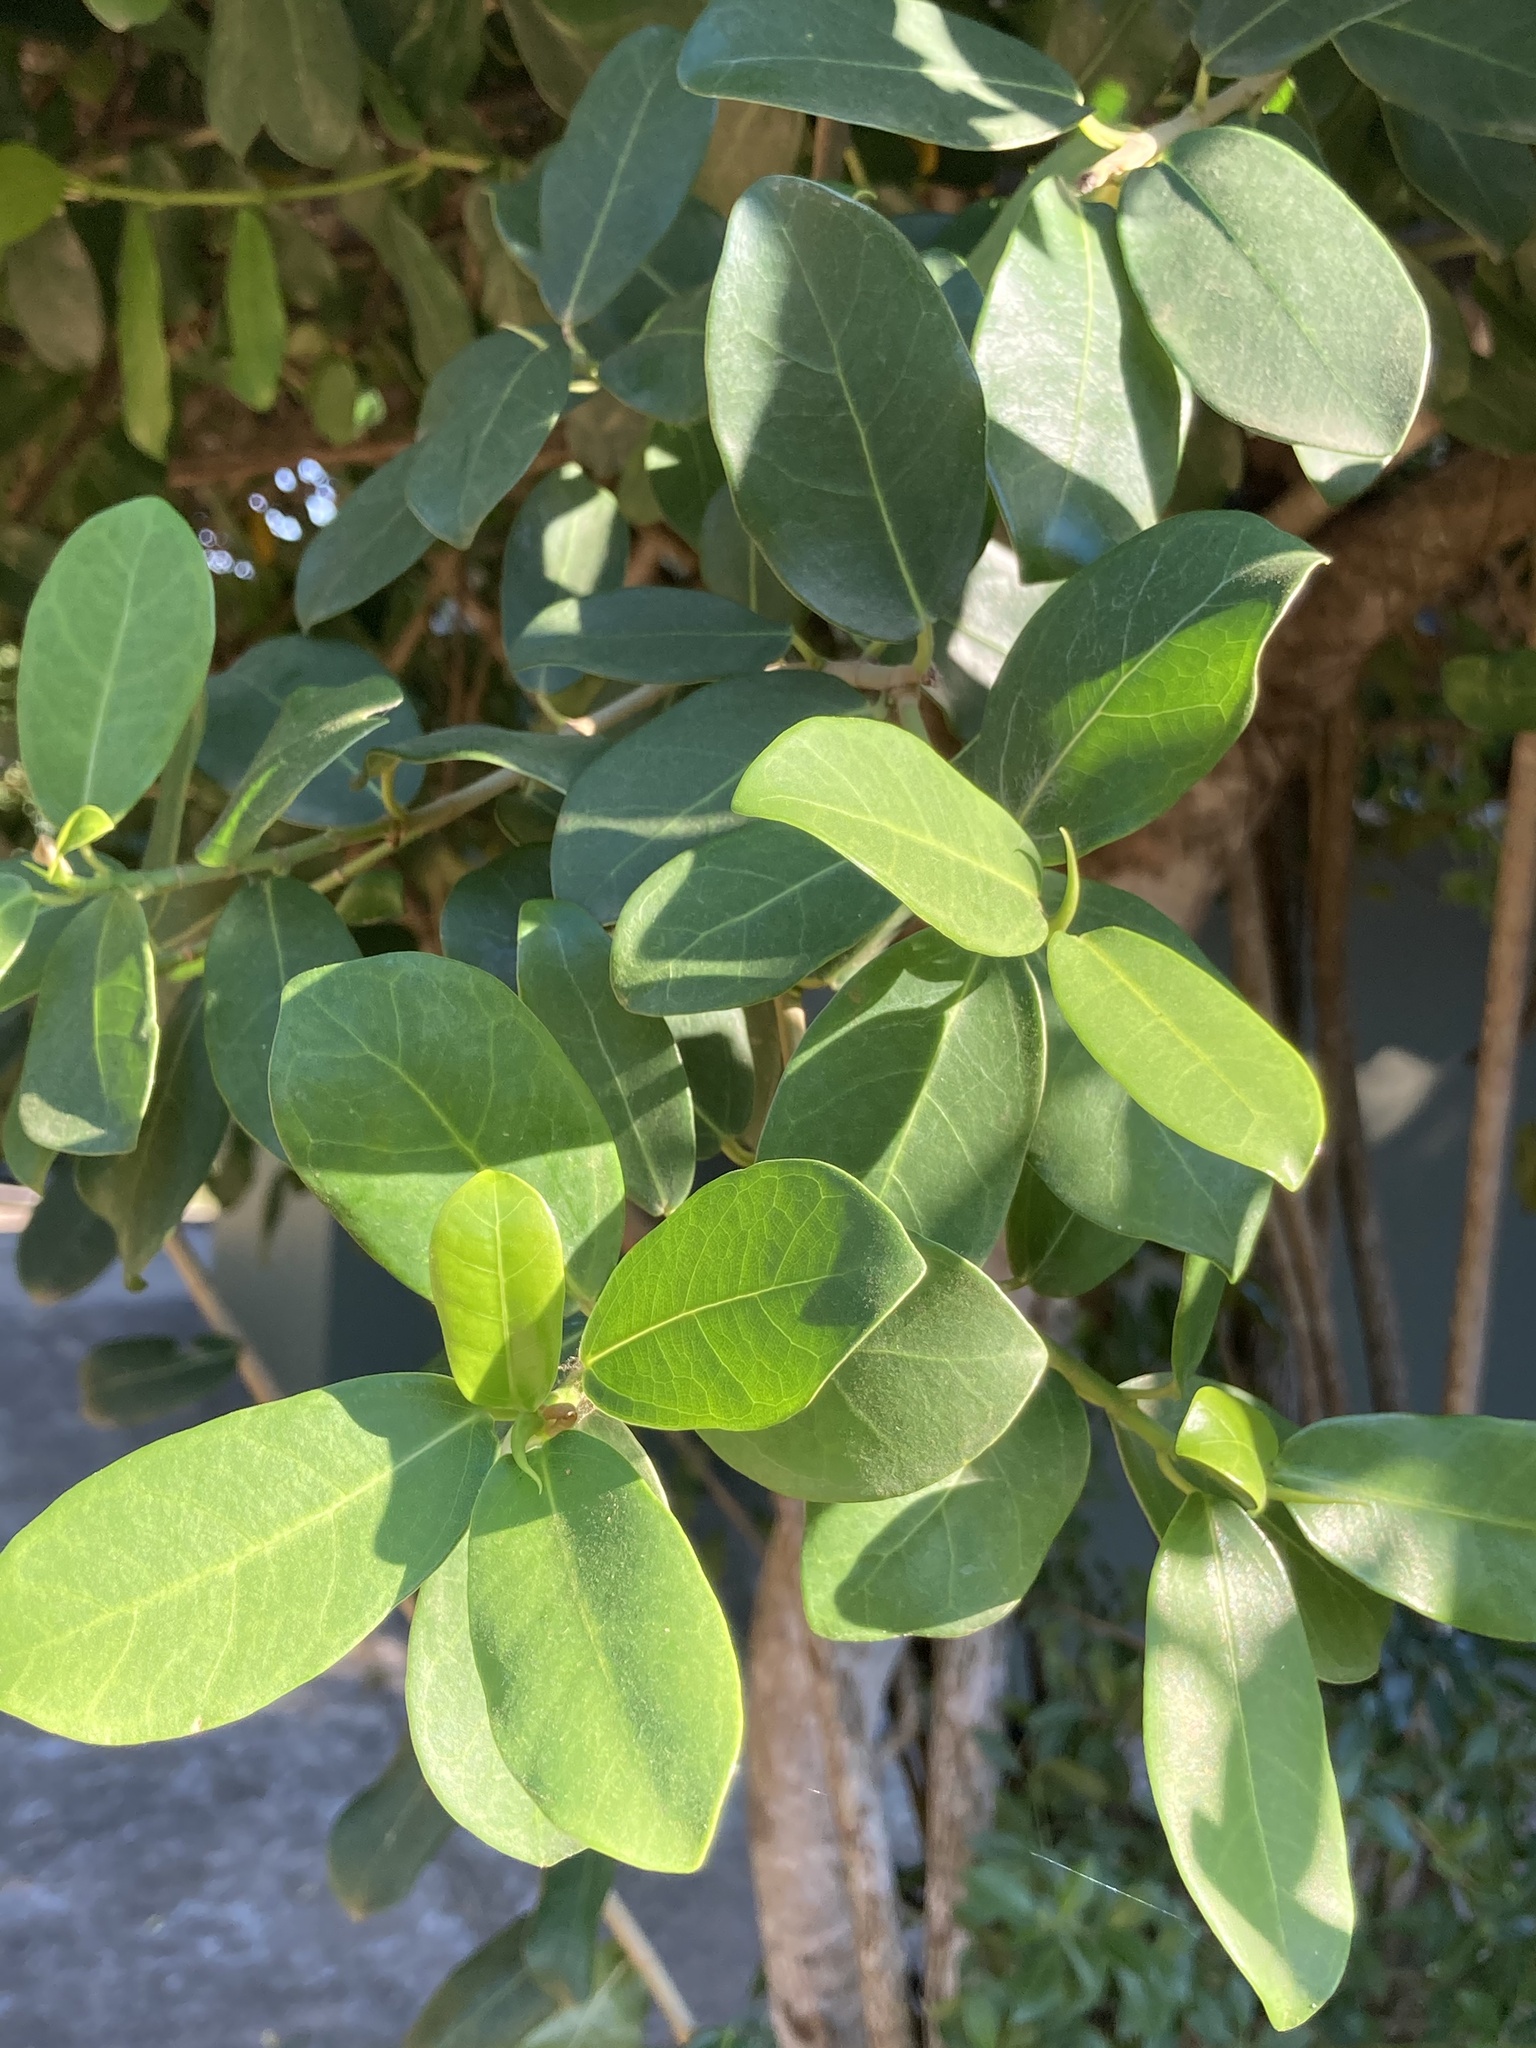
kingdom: Plantae
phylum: Tracheophyta
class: Magnoliopsida
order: Rosales
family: Moraceae
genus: Ficus
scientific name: Ficus burtt-davyi
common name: Scrambling fig
